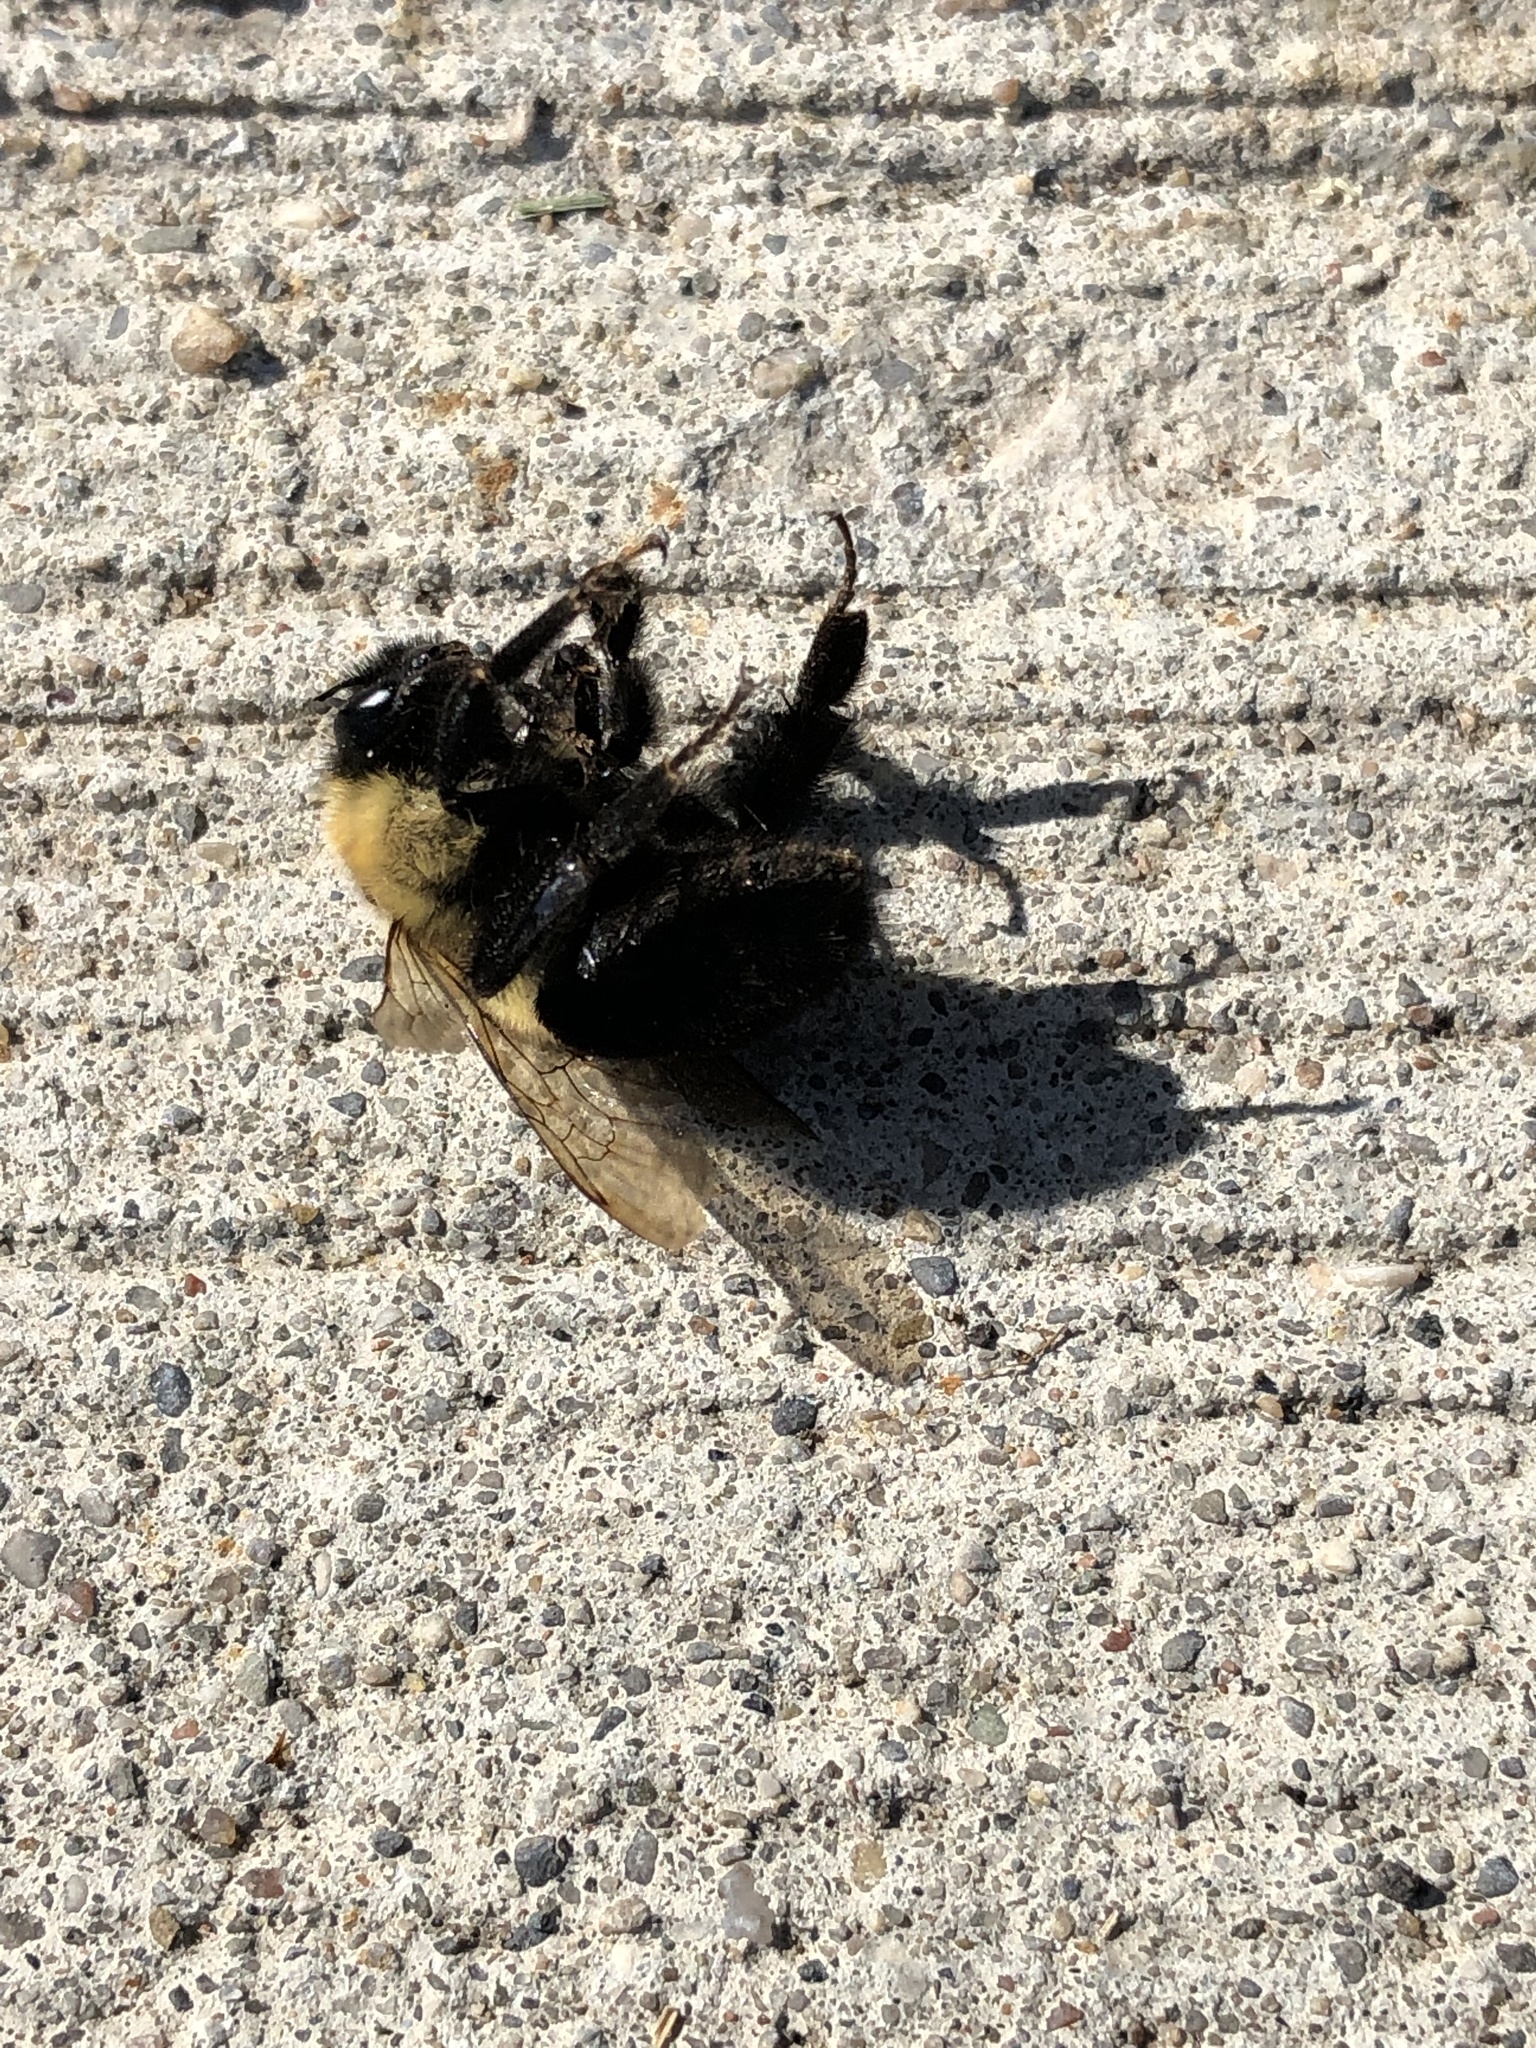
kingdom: Animalia
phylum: Arthropoda
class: Insecta
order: Hymenoptera
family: Apidae
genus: Bombus
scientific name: Bombus impatiens
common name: Common eastern bumble bee
